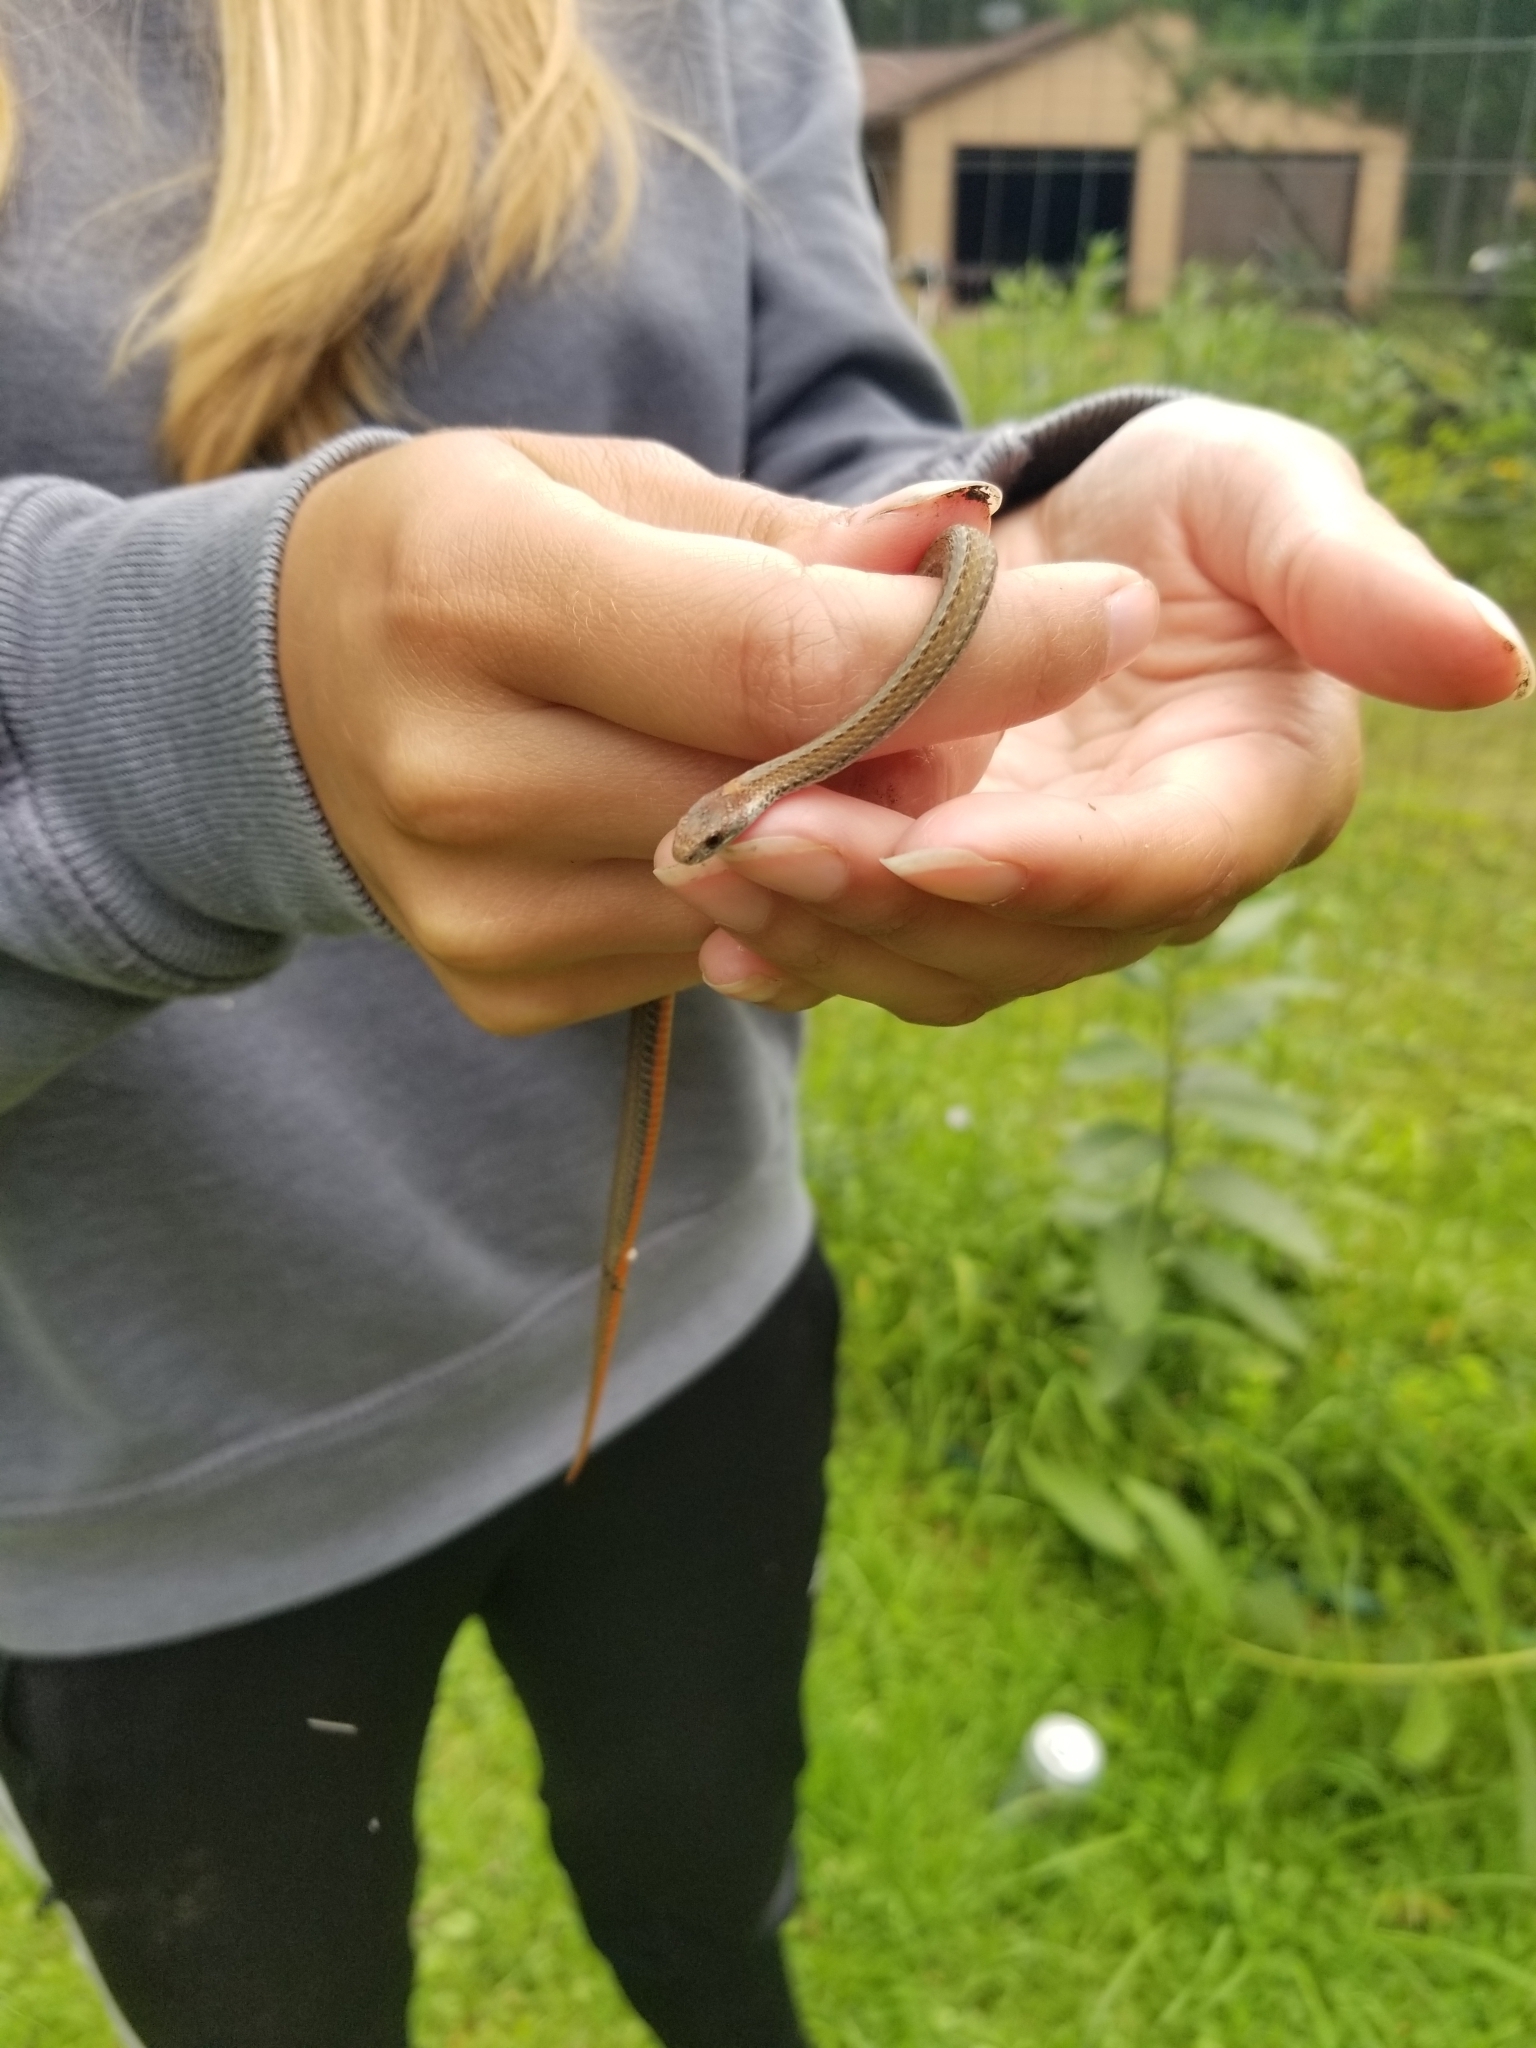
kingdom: Animalia
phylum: Chordata
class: Squamata
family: Colubridae
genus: Storeria
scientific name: Storeria occipitomaculata
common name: Redbelly snake
